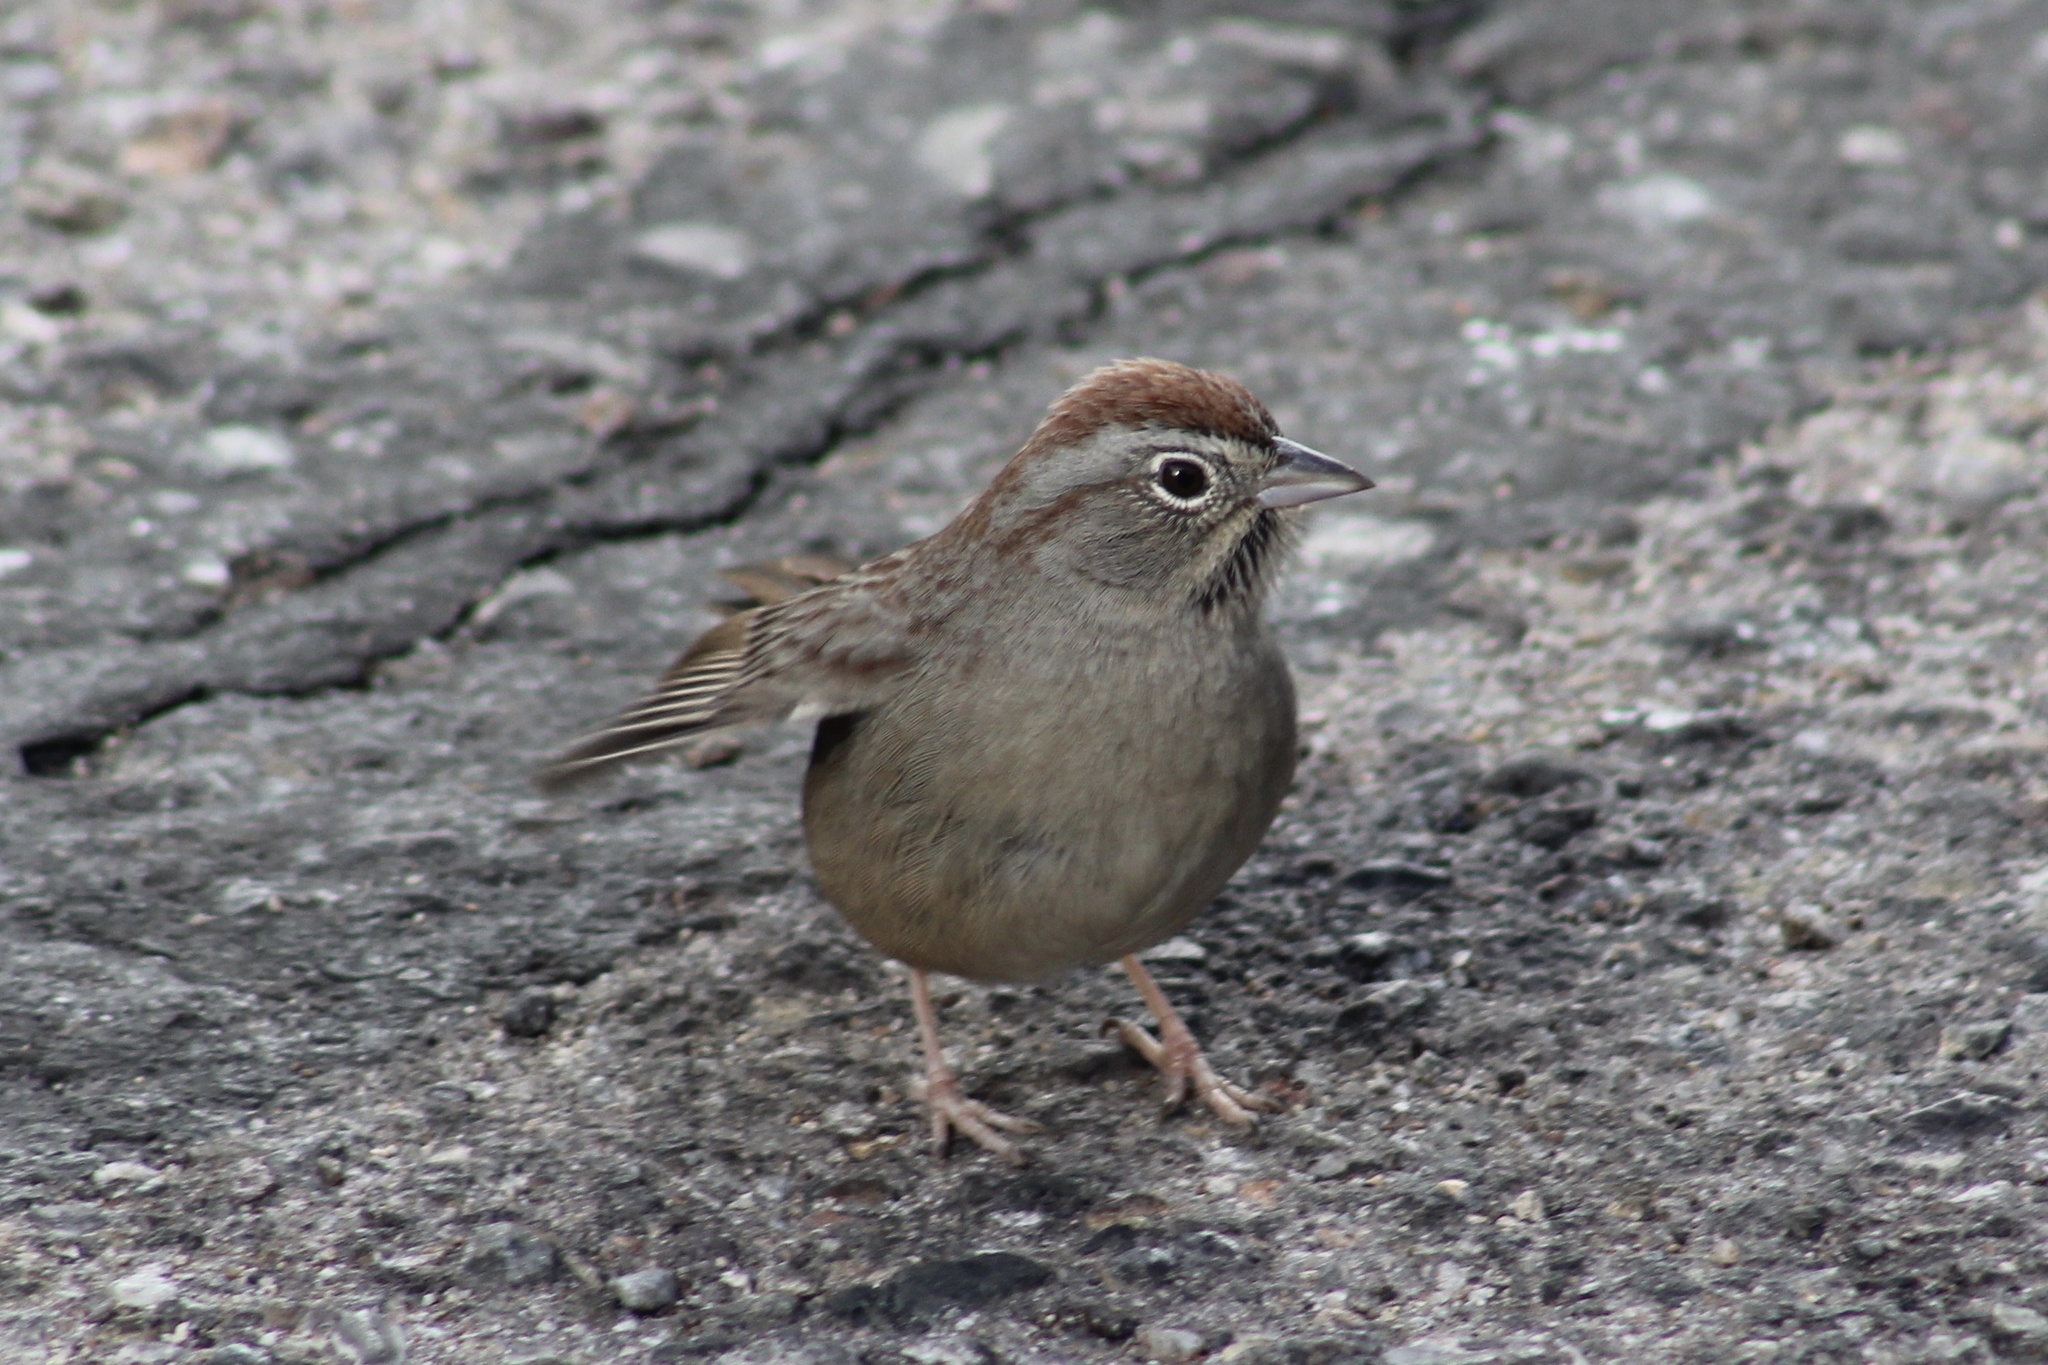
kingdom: Animalia
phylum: Chordata
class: Aves
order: Passeriformes
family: Passerellidae
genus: Aimophila
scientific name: Aimophila ruficeps
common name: Rufous-crowned sparrow
